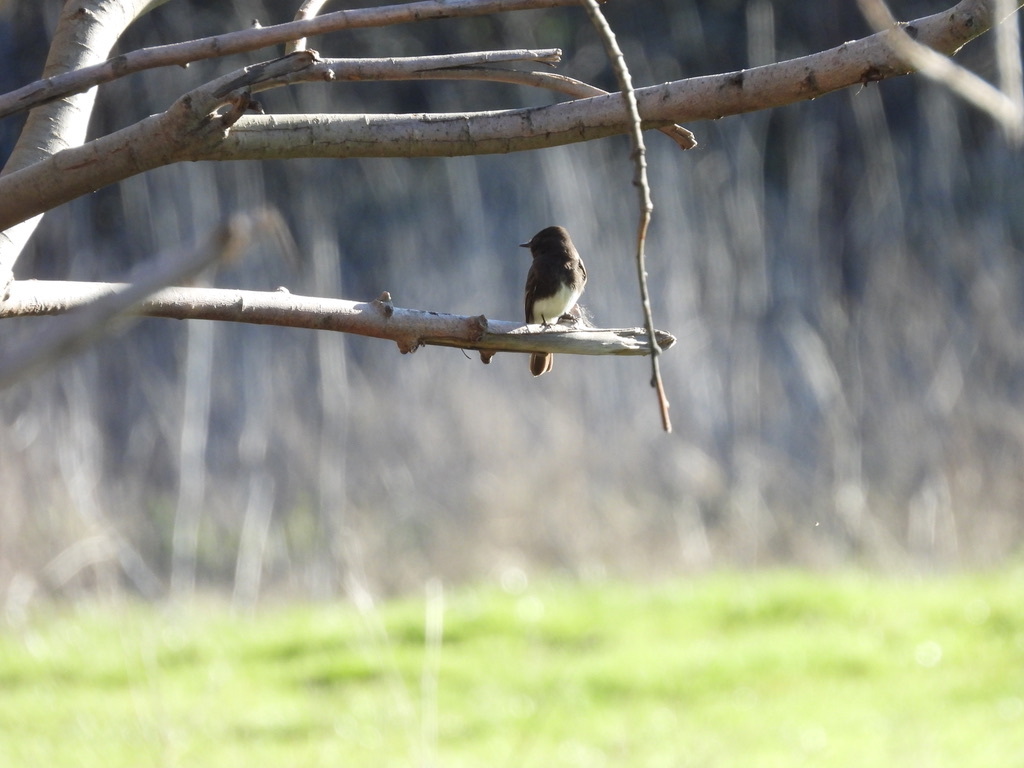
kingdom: Animalia
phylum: Chordata
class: Aves
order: Passeriformes
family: Tyrannidae
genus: Sayornis
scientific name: Sayornis nigricans
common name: Black phoebe
